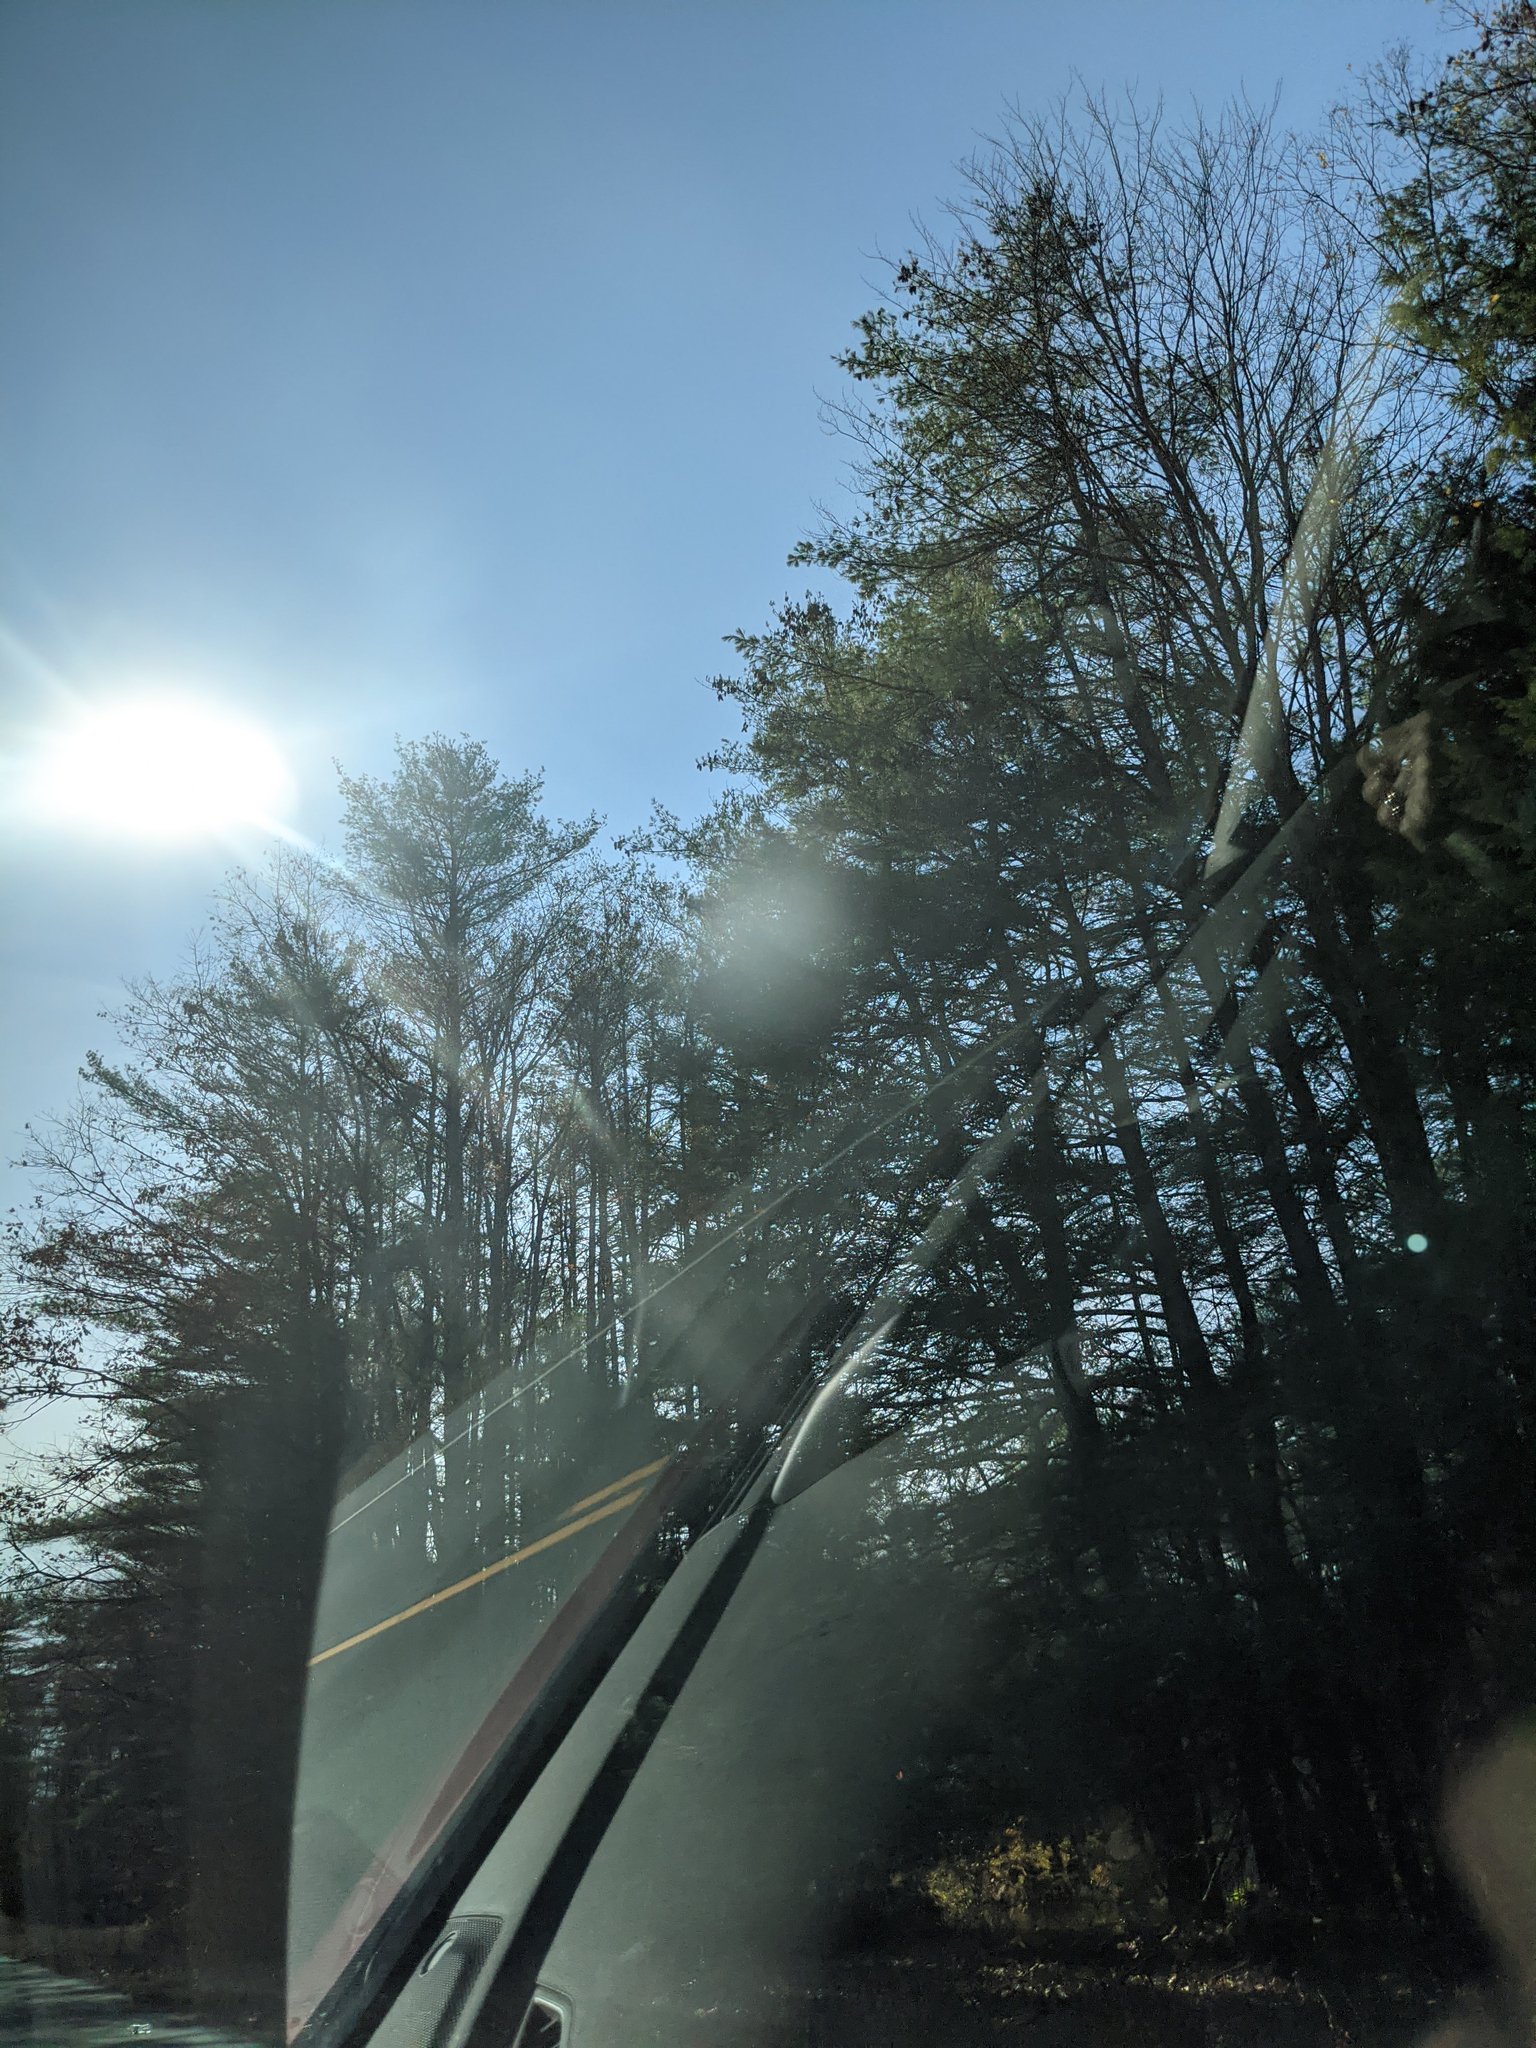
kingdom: Plantae
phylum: Tracheophyta
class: Pinopsida
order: Pinales
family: Pinaceae
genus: Pinus
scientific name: Pinus strobus
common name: Weymouth pine
